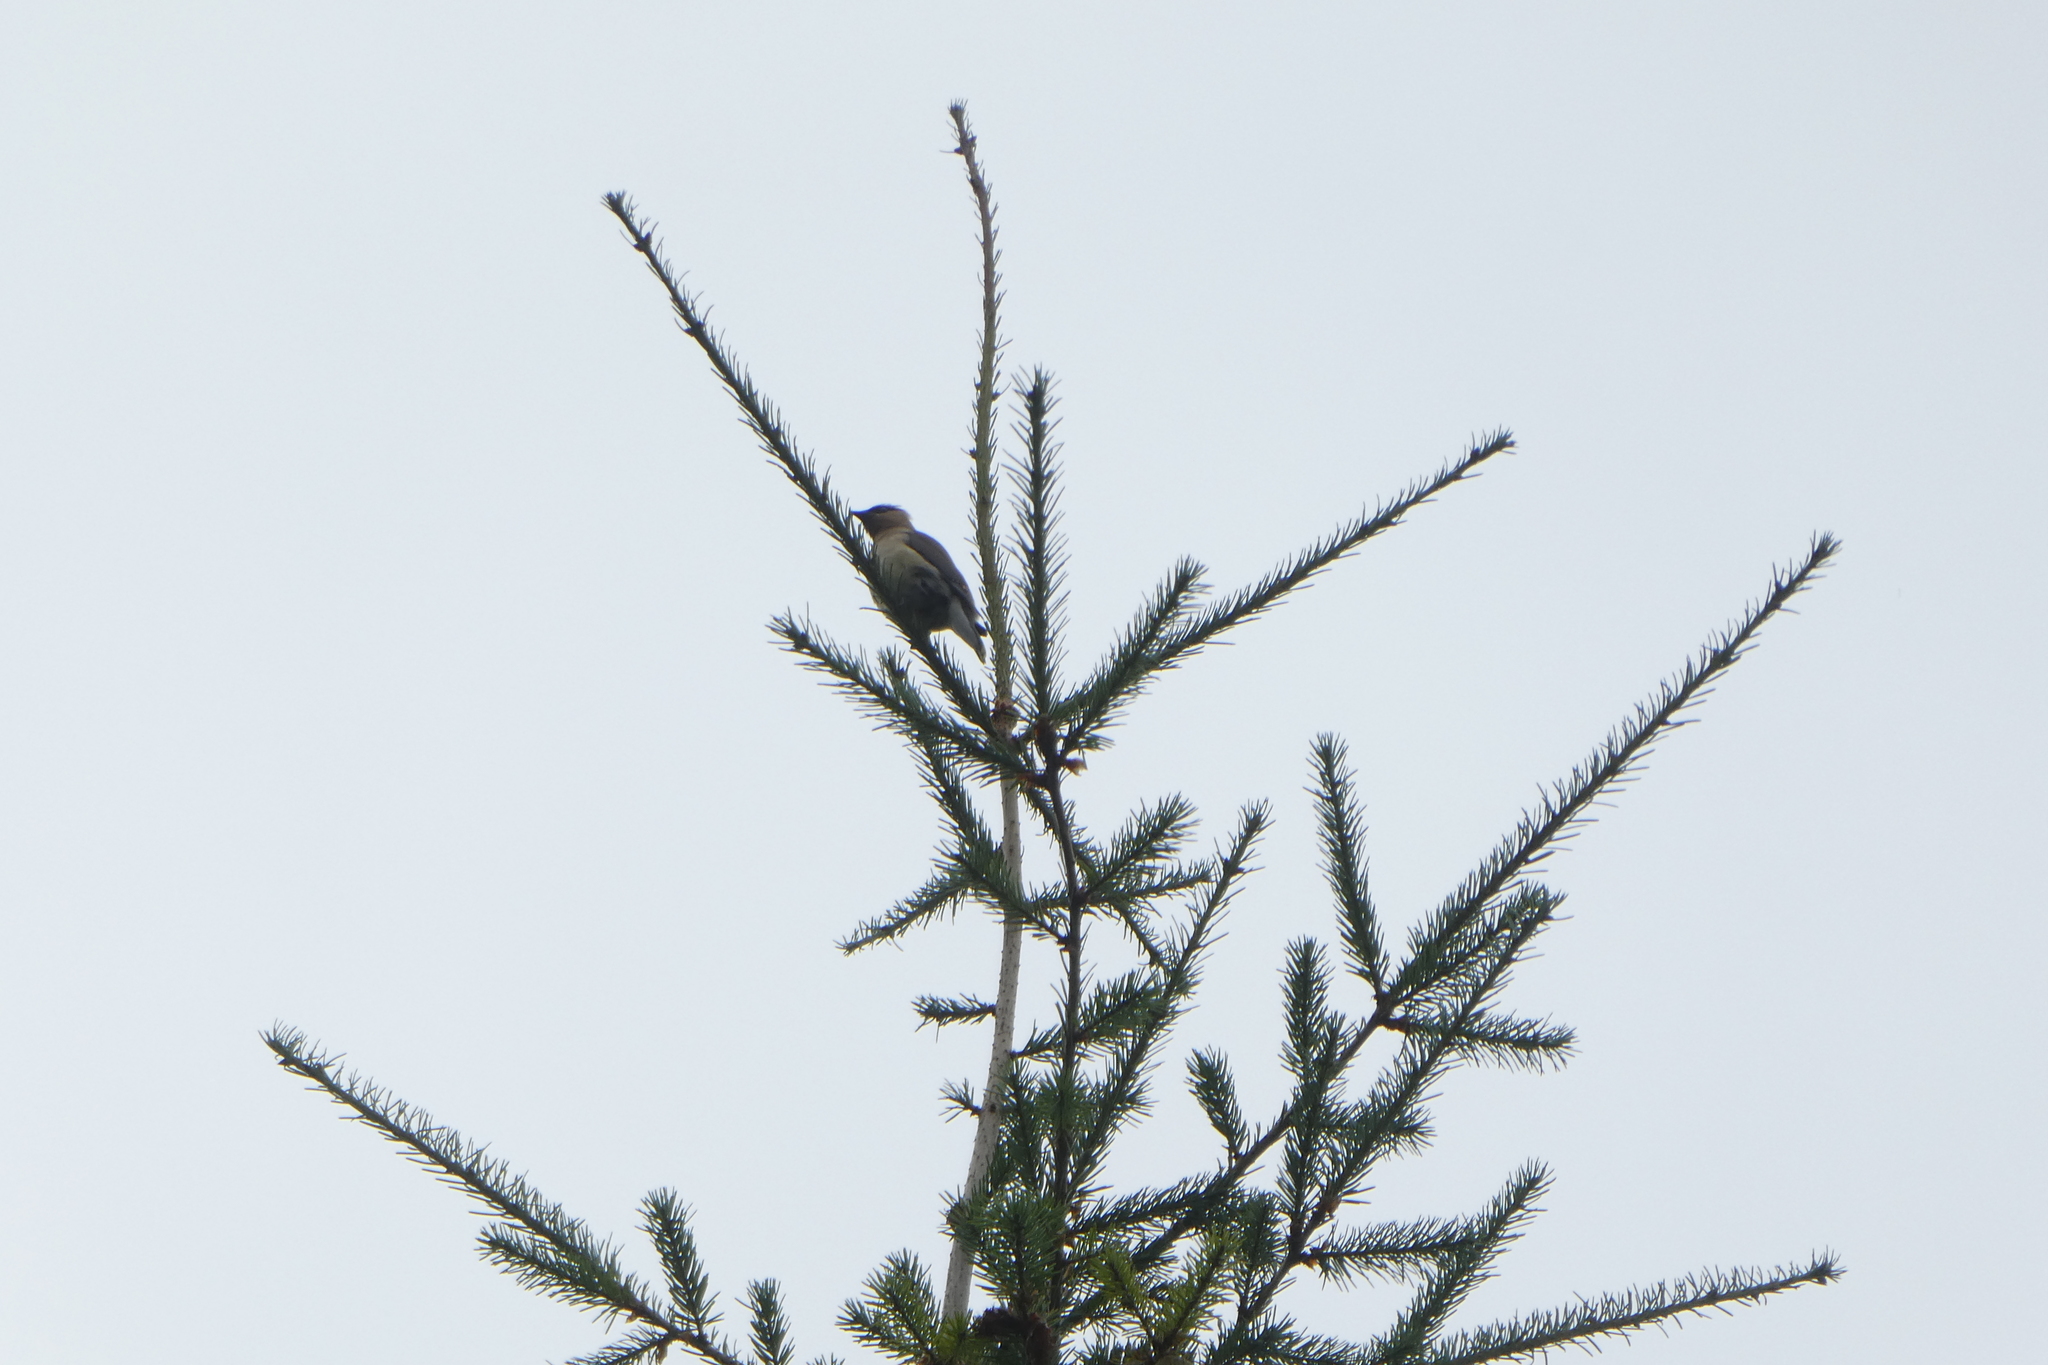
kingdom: Animalia
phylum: Chordata
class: Aves
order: Passeriformes
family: Bombycillidae
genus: Bombycilla
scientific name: Bombycilla cedrorum
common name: Cedar waxwing
